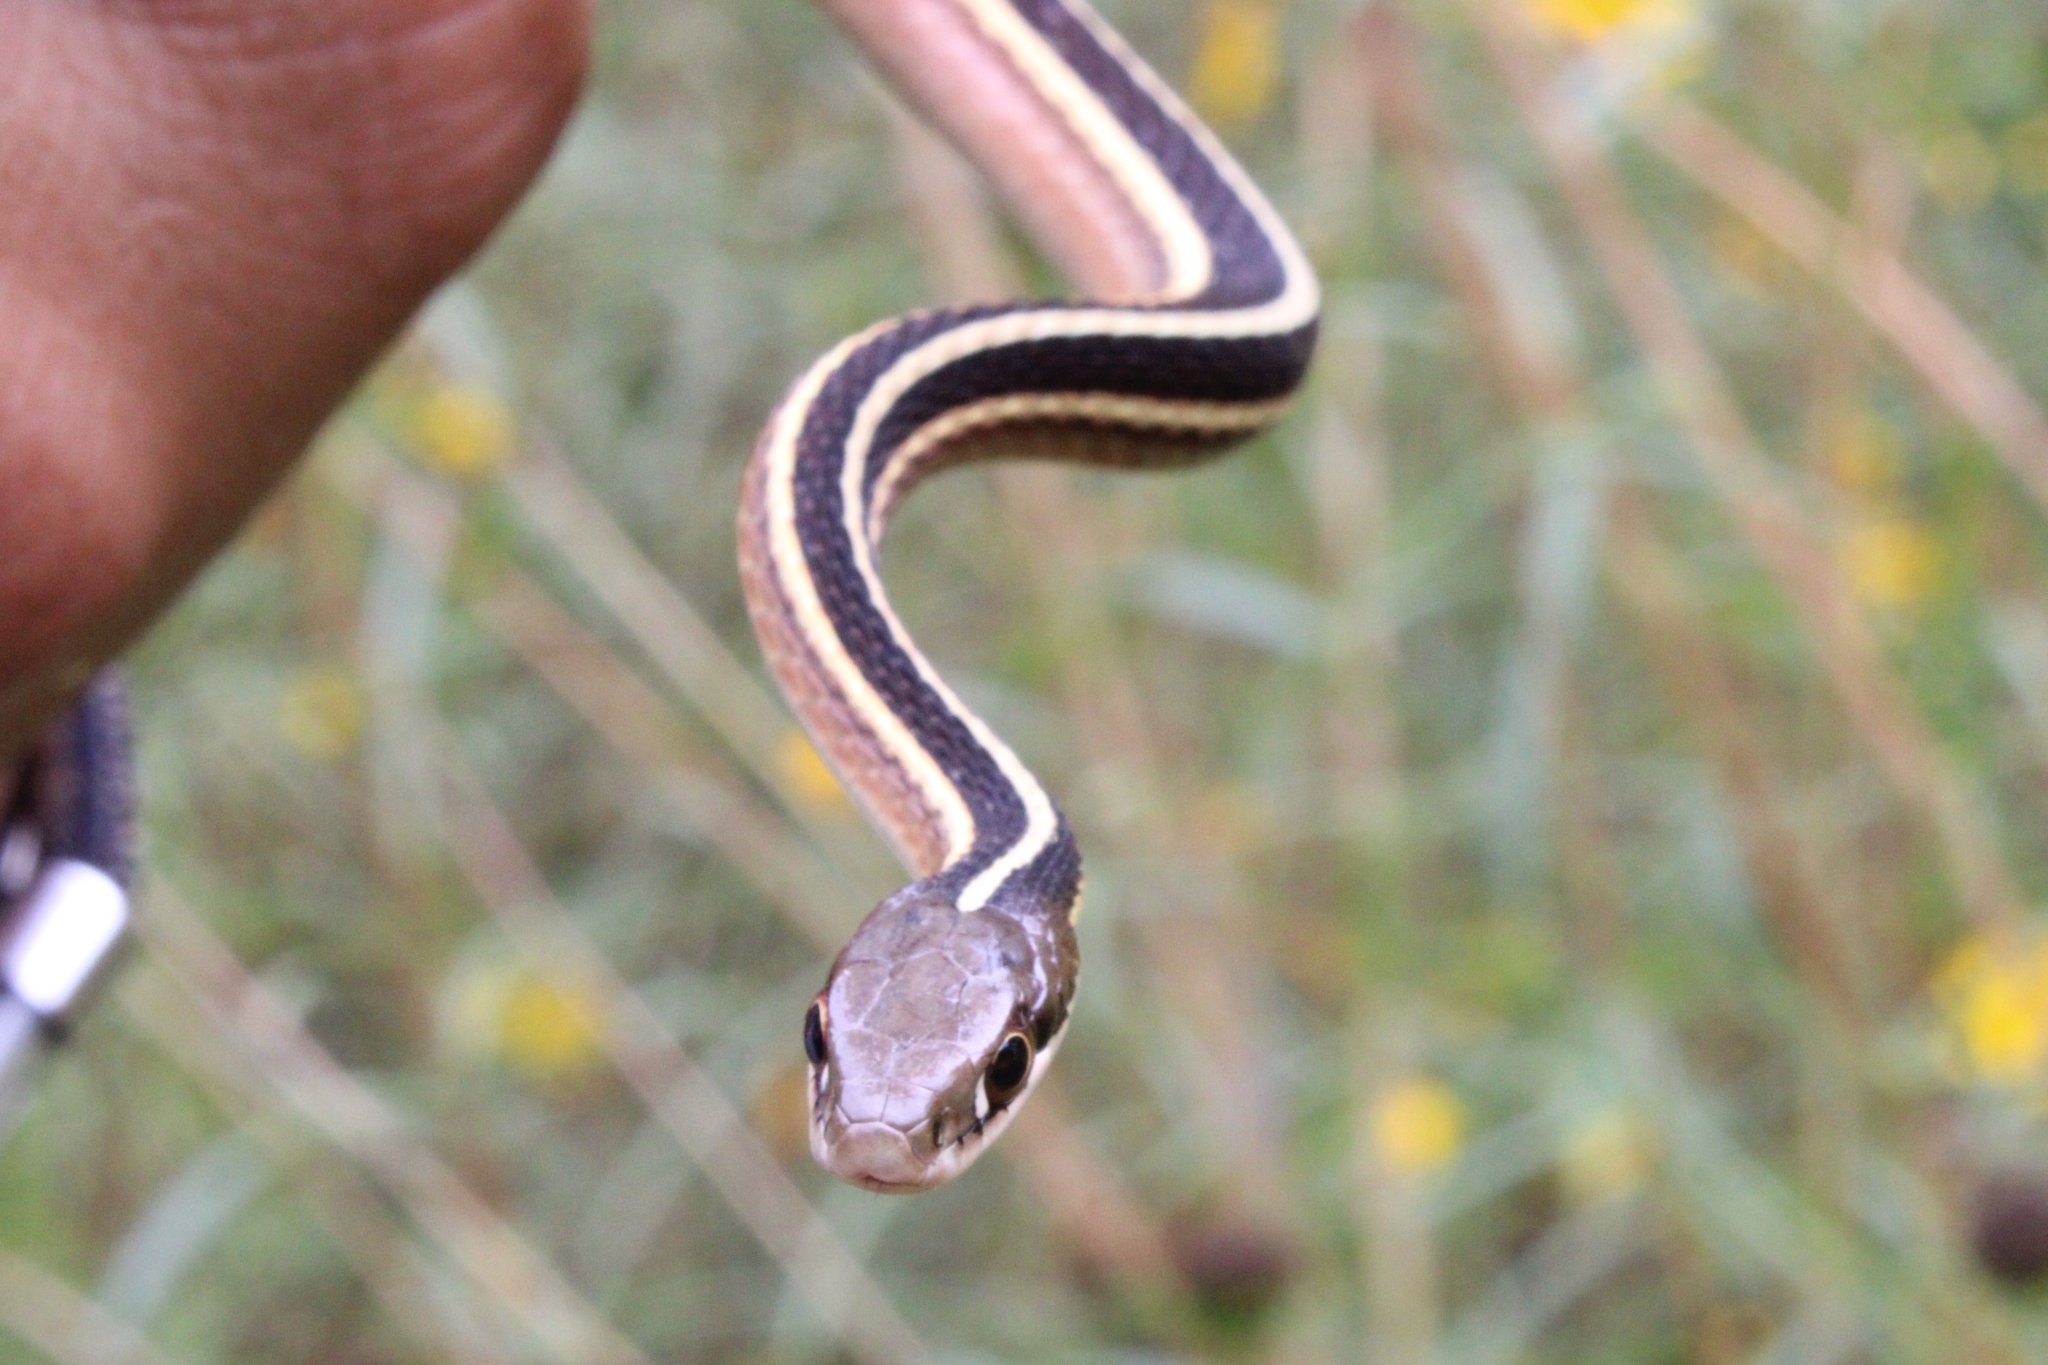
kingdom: Animalia
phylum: Chordata
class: Squamata
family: Colubridae
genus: Thamnophis
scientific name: Thamnophis saurita
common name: Eastern ribbonsnake
